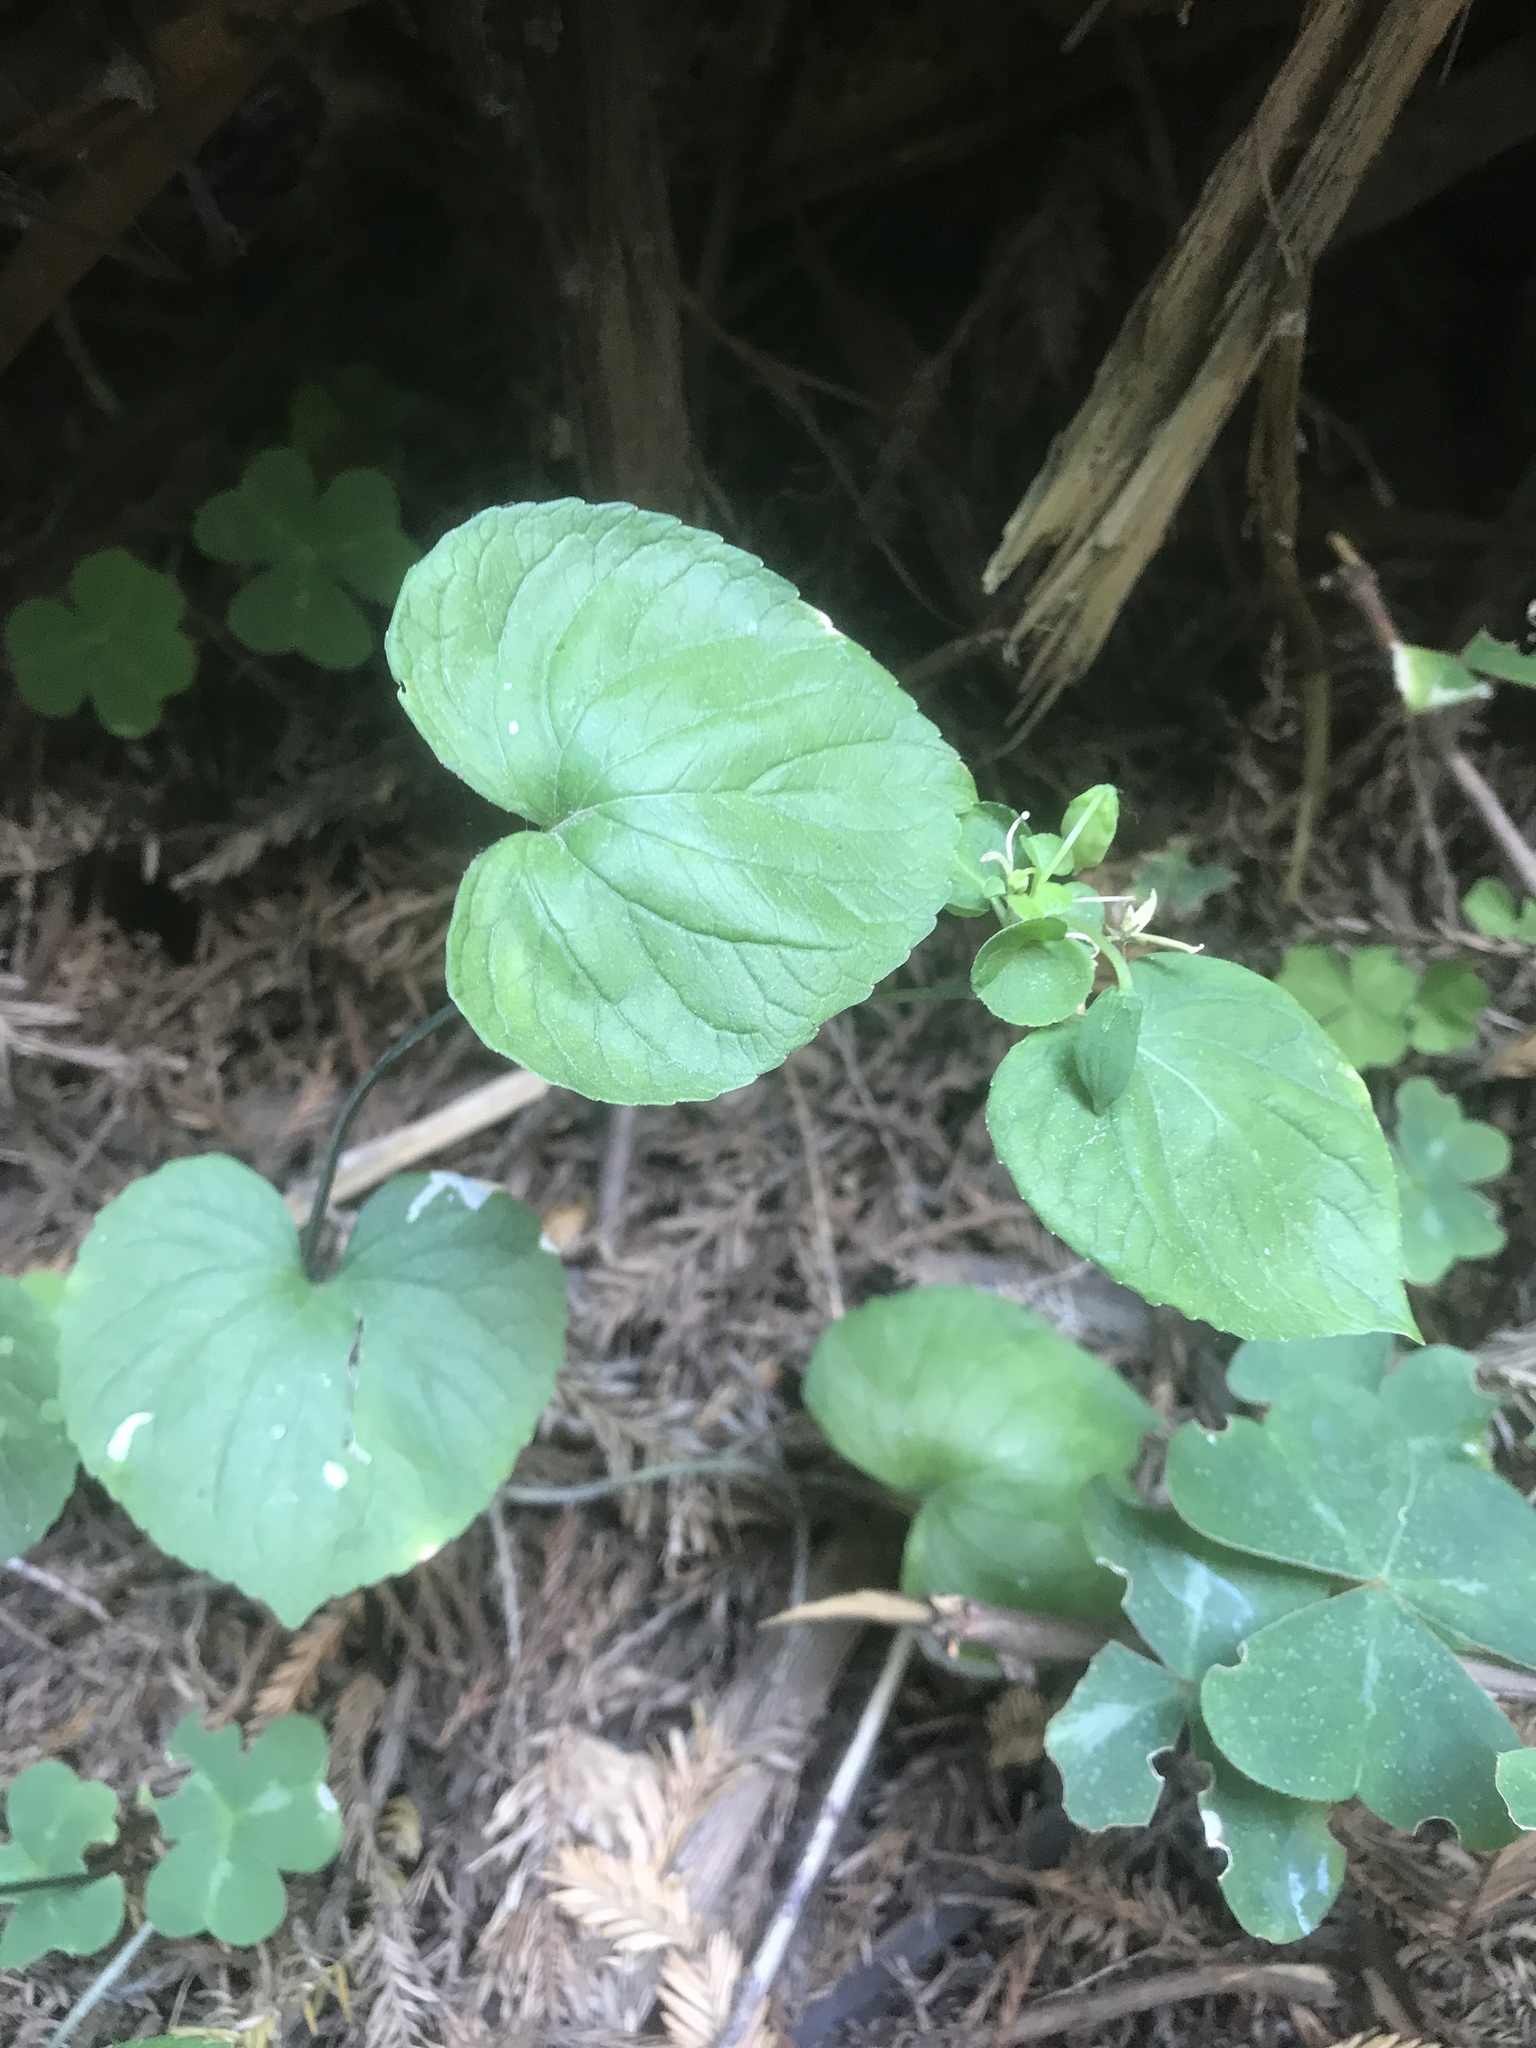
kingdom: Plantae
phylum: Tracheophyta
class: Magnoliopsida
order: Malpighiales
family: Violaceae
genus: Viola
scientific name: Viola glabella
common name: Stream violet
